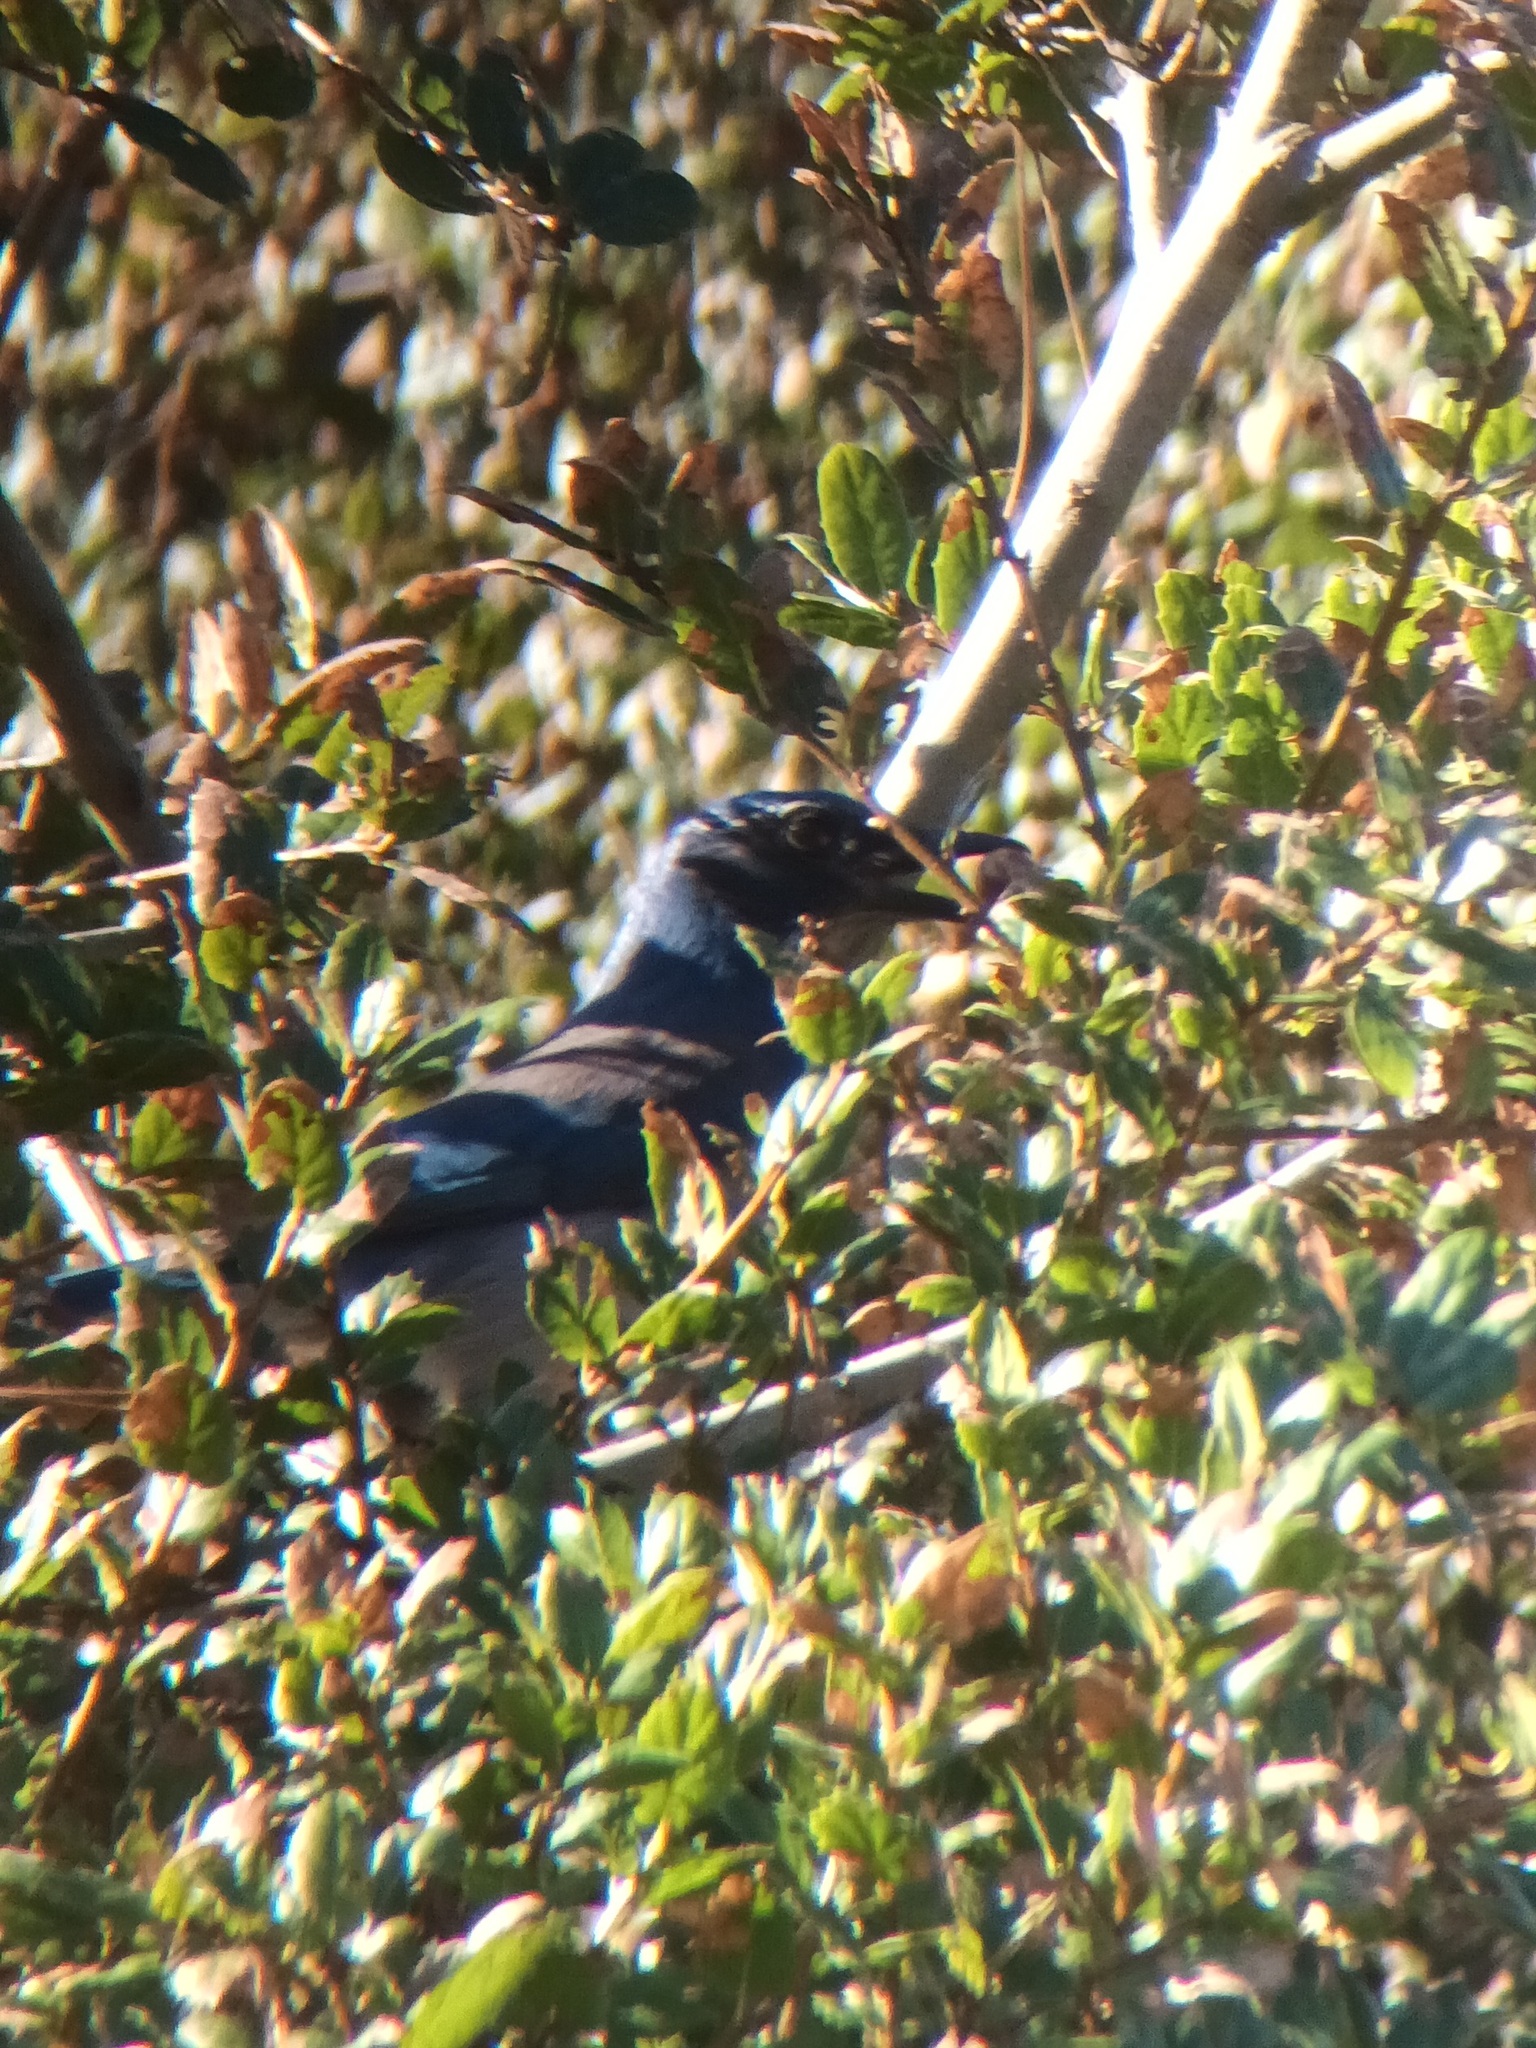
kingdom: Animalia
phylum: Chordata
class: Aves
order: Passeriformes
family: Corvidae
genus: Aphelocoma
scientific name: Aphelocoma californica
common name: California scrub-jay
